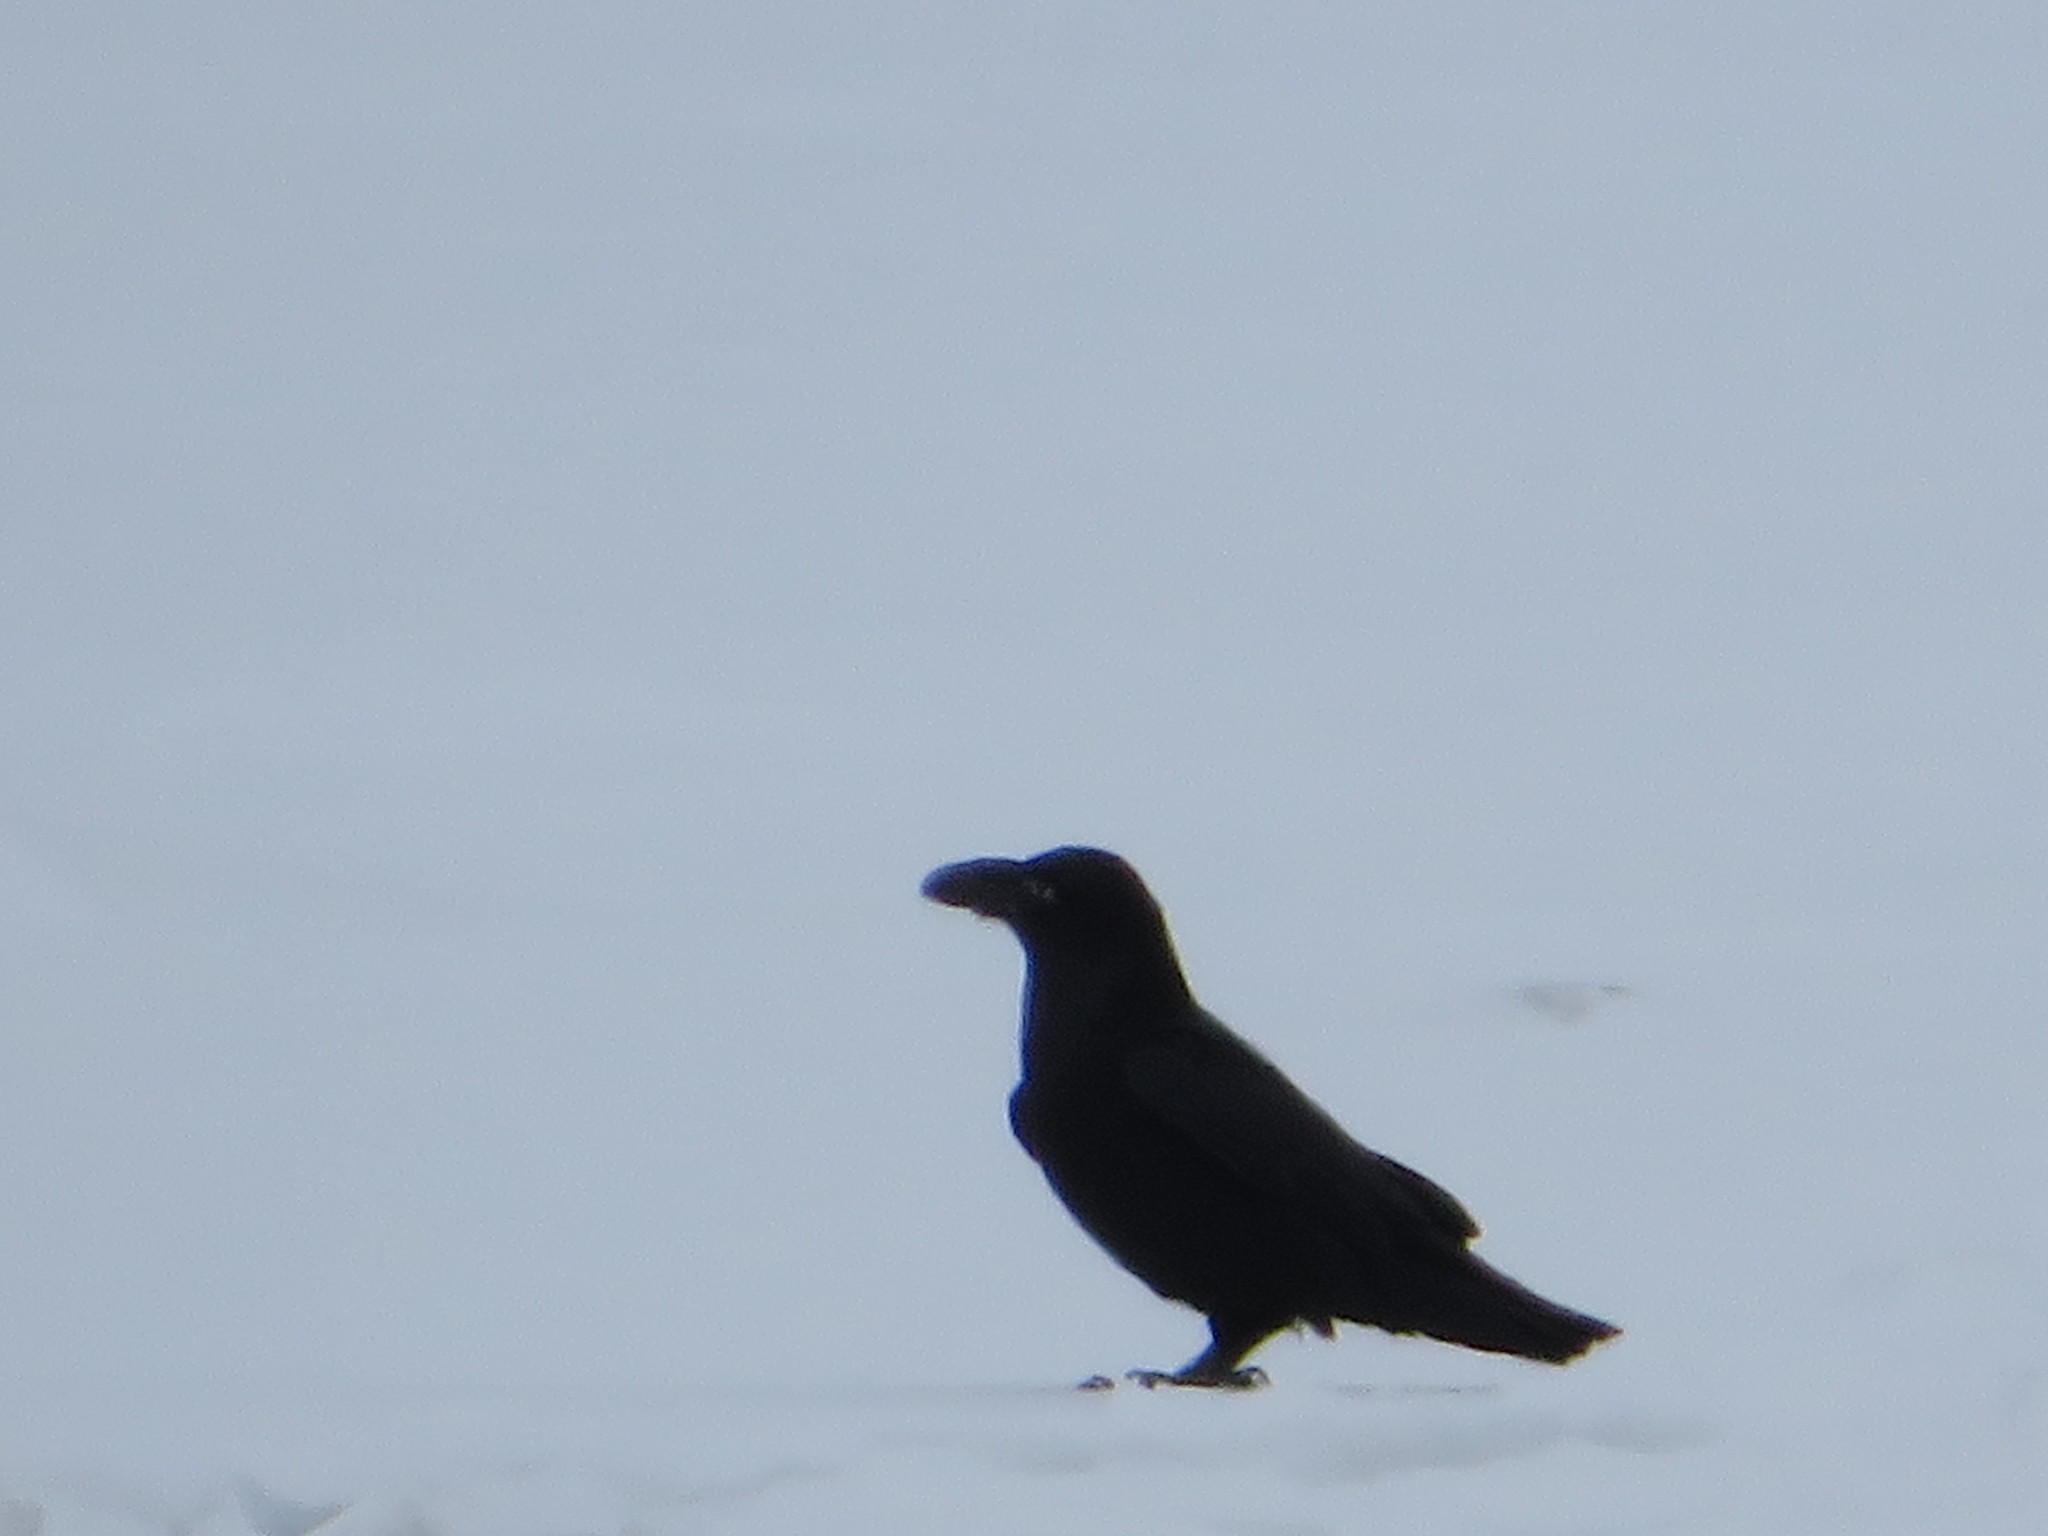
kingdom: Animalia
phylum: Chordata
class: Aves
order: Passeriformes
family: Corvidae
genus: Corvus
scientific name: Corvus corax
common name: Common raven
